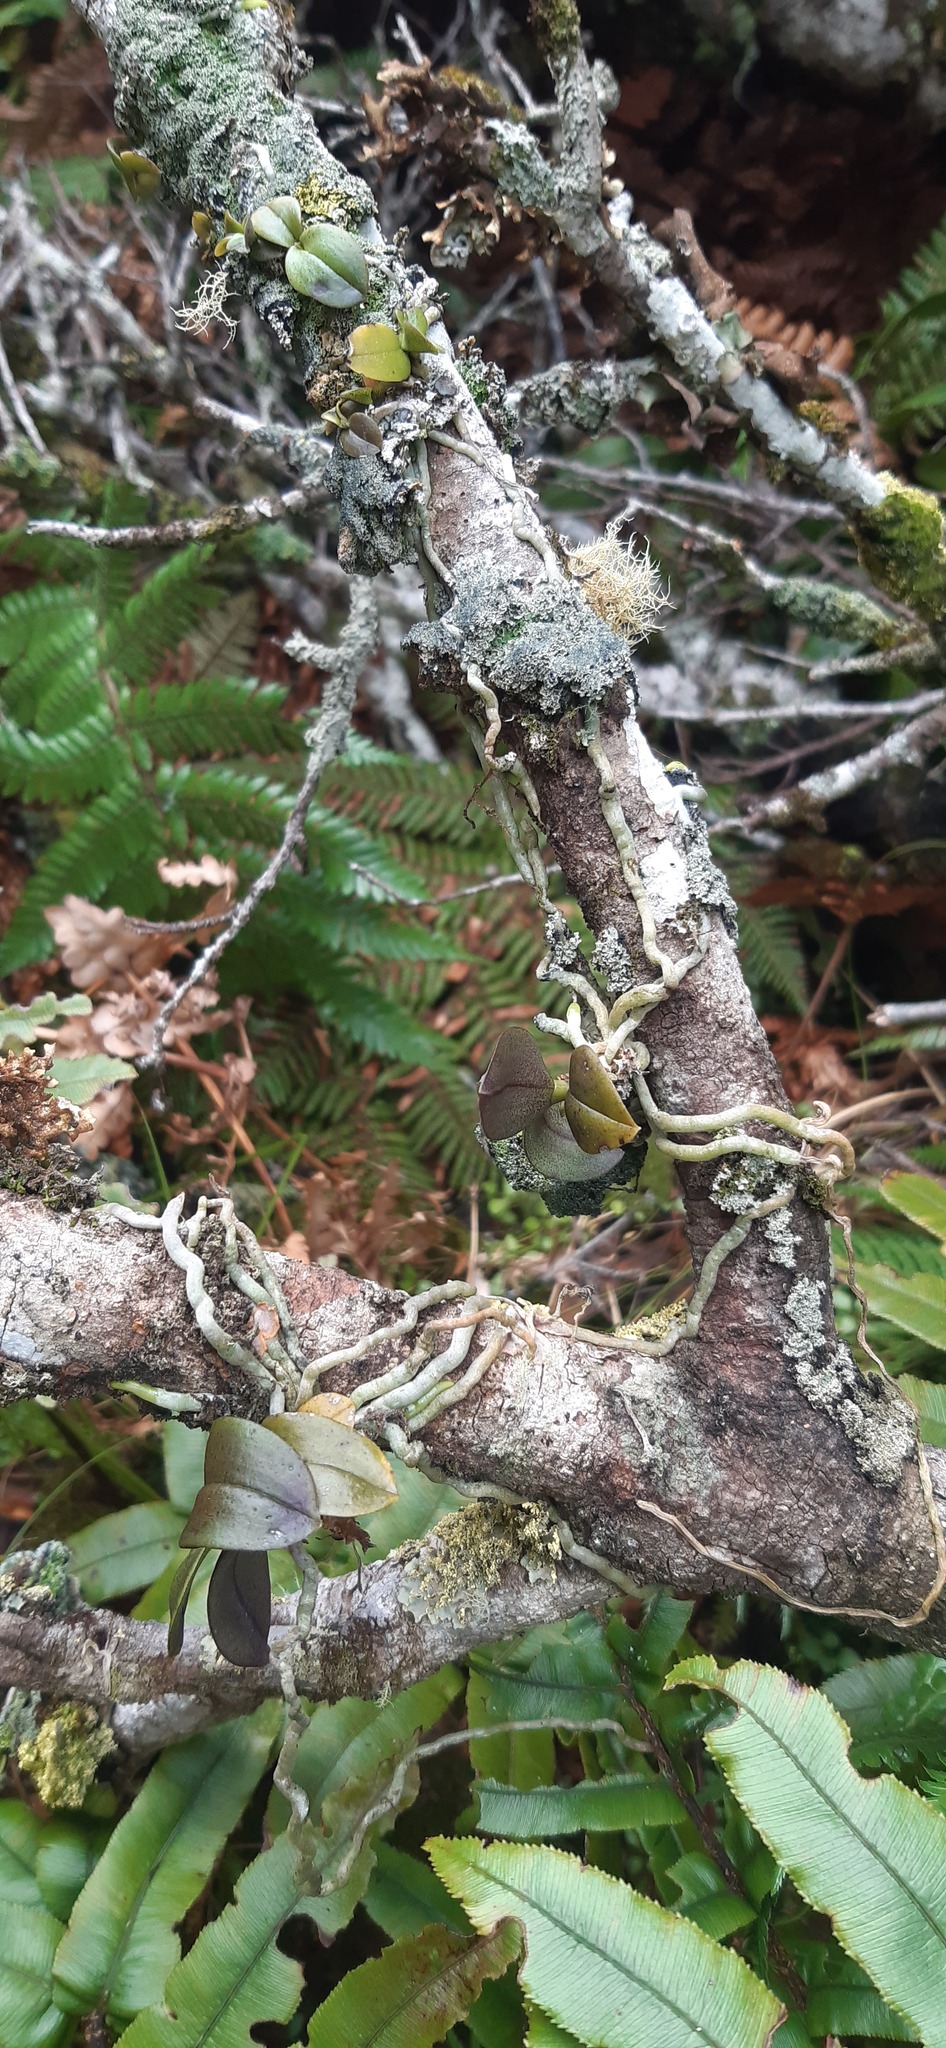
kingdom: Plantae
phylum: Tracheophyta
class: Liliopsida
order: Asparagales
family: Orchidaceae
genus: Drymoanthus
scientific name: Drymoanthus adversus
